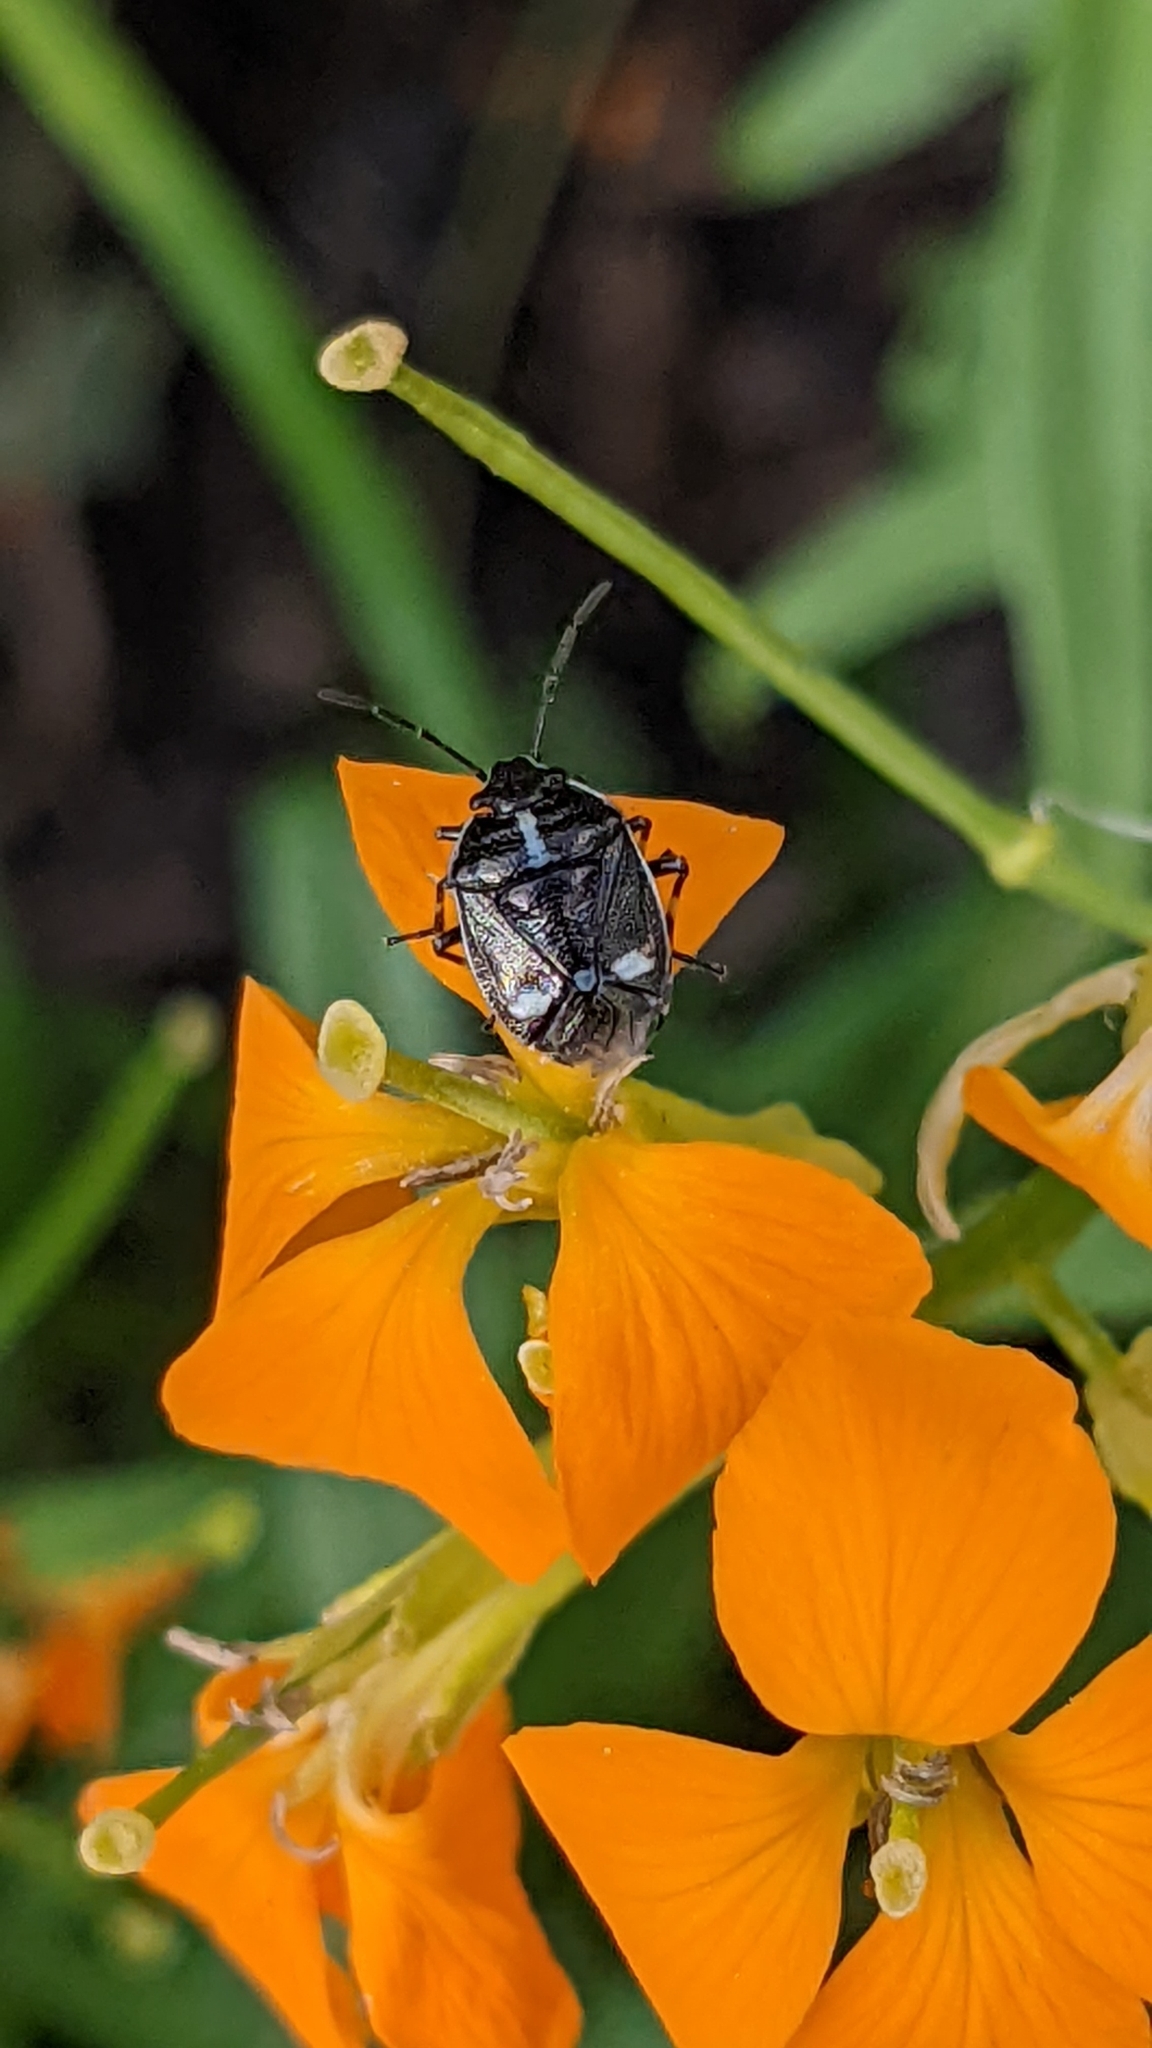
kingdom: Animalia
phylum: Arthropoda
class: Insecta
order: Hemiptera
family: Pentatomidae
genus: Eurydema
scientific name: Eurydema oleracea
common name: Cabbage bug
